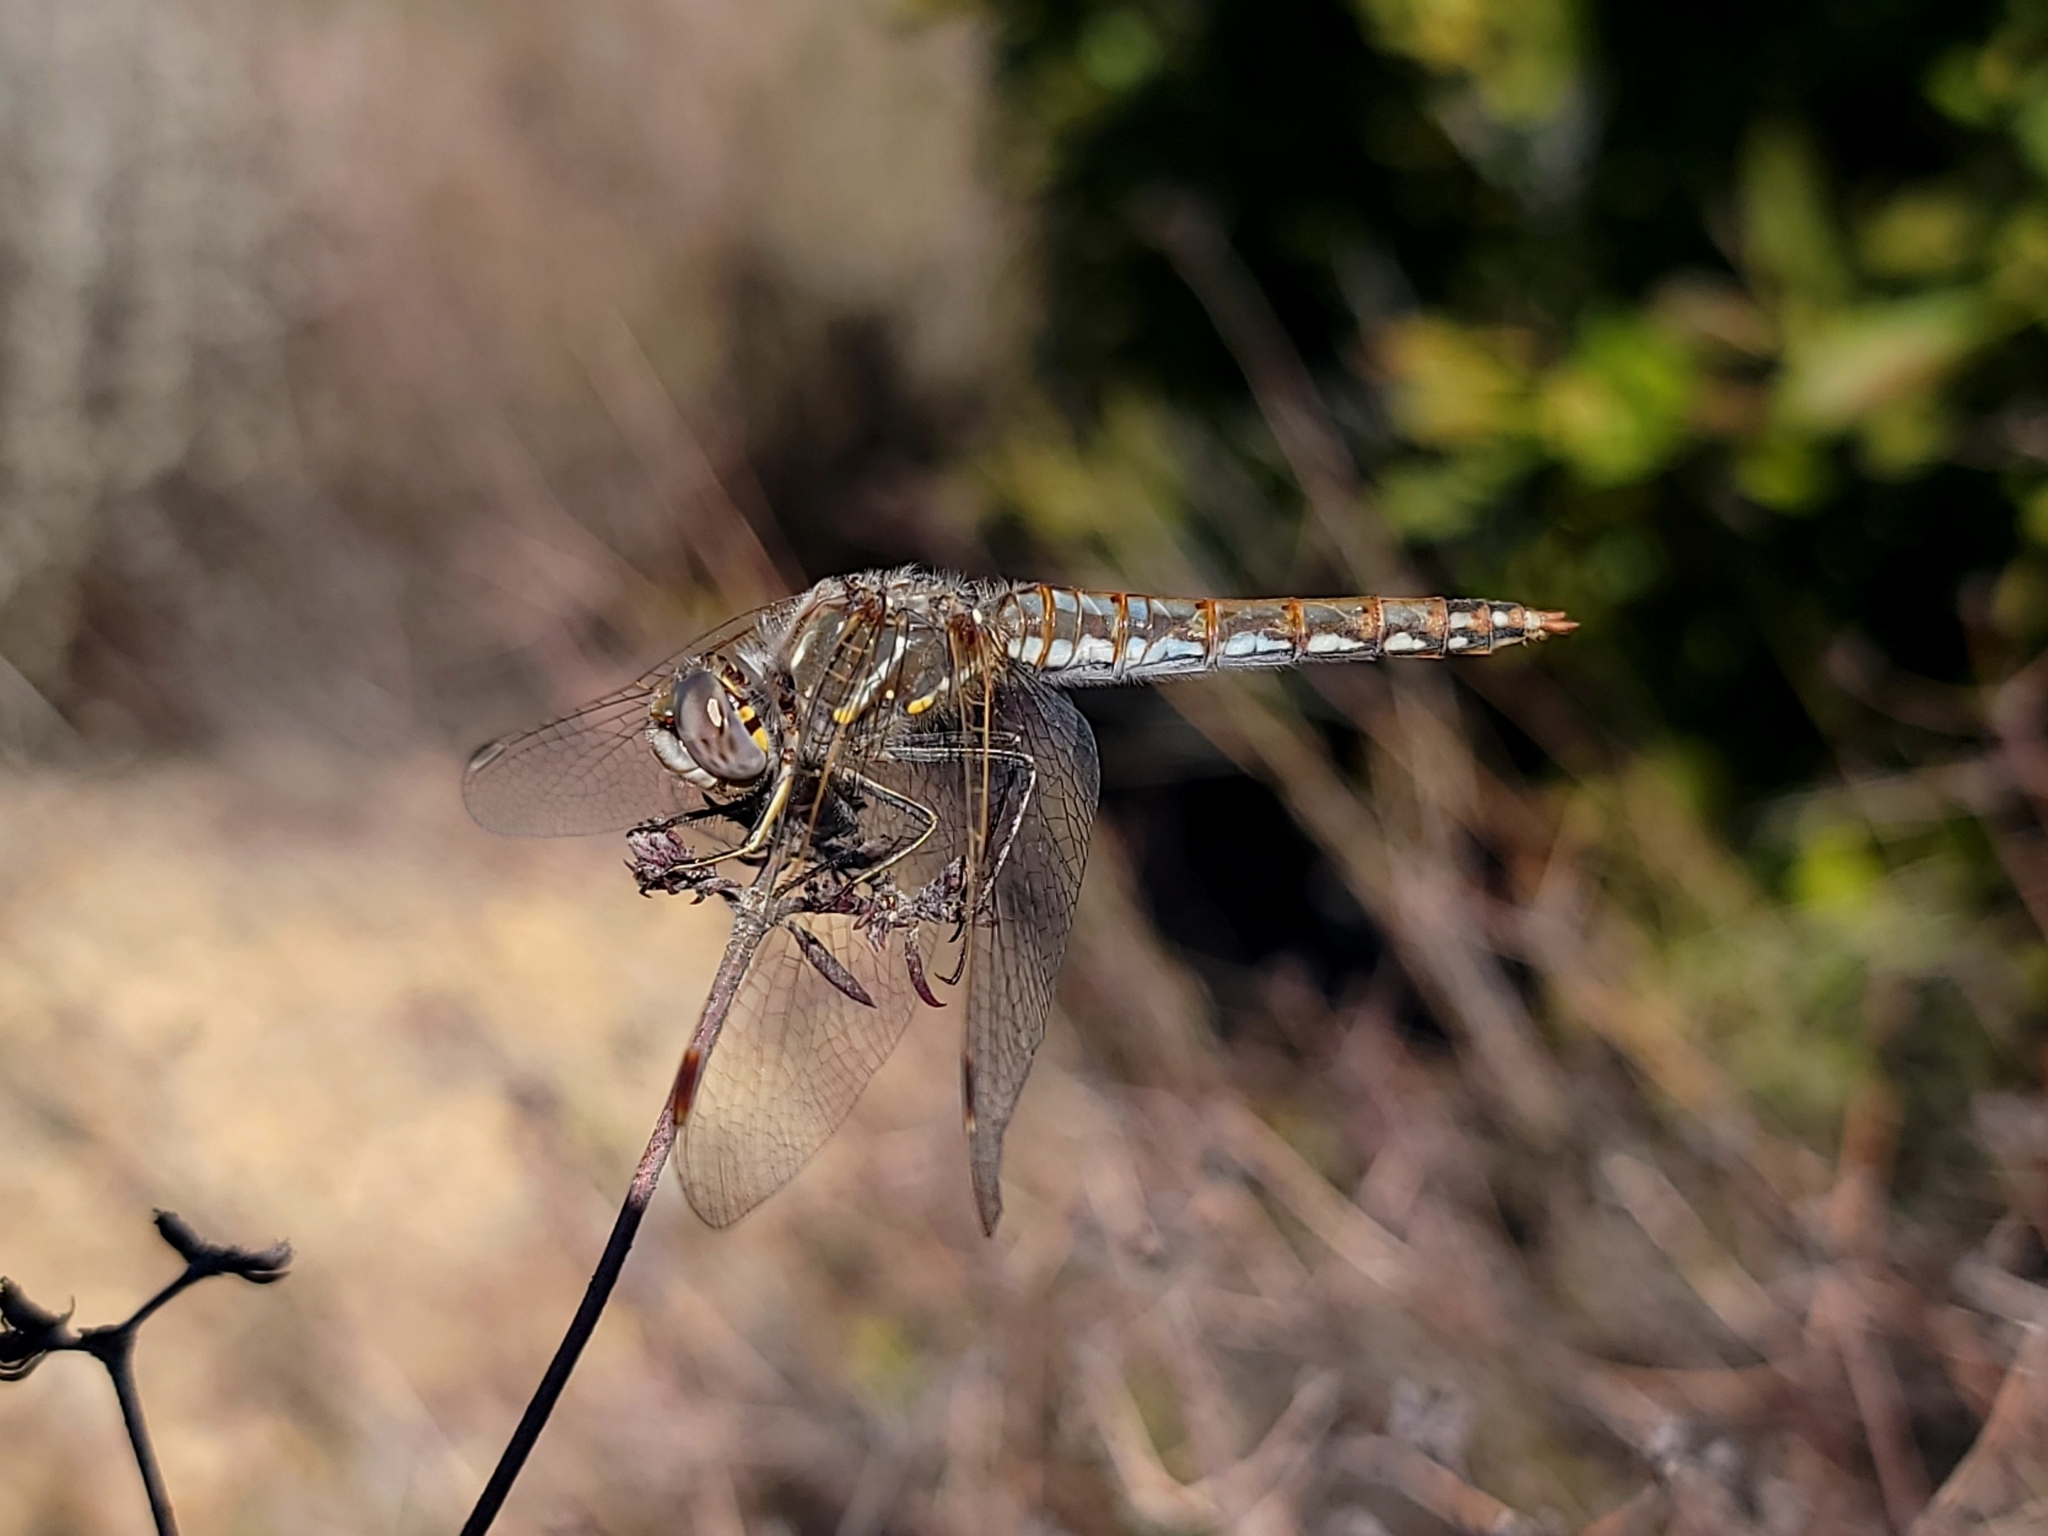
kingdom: Animalia
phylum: Arthropoda
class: Insecta
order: Odonata
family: Libellulidae
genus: Sympetrum
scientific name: Sympetrum corruptum
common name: Variegated meadowhawk
